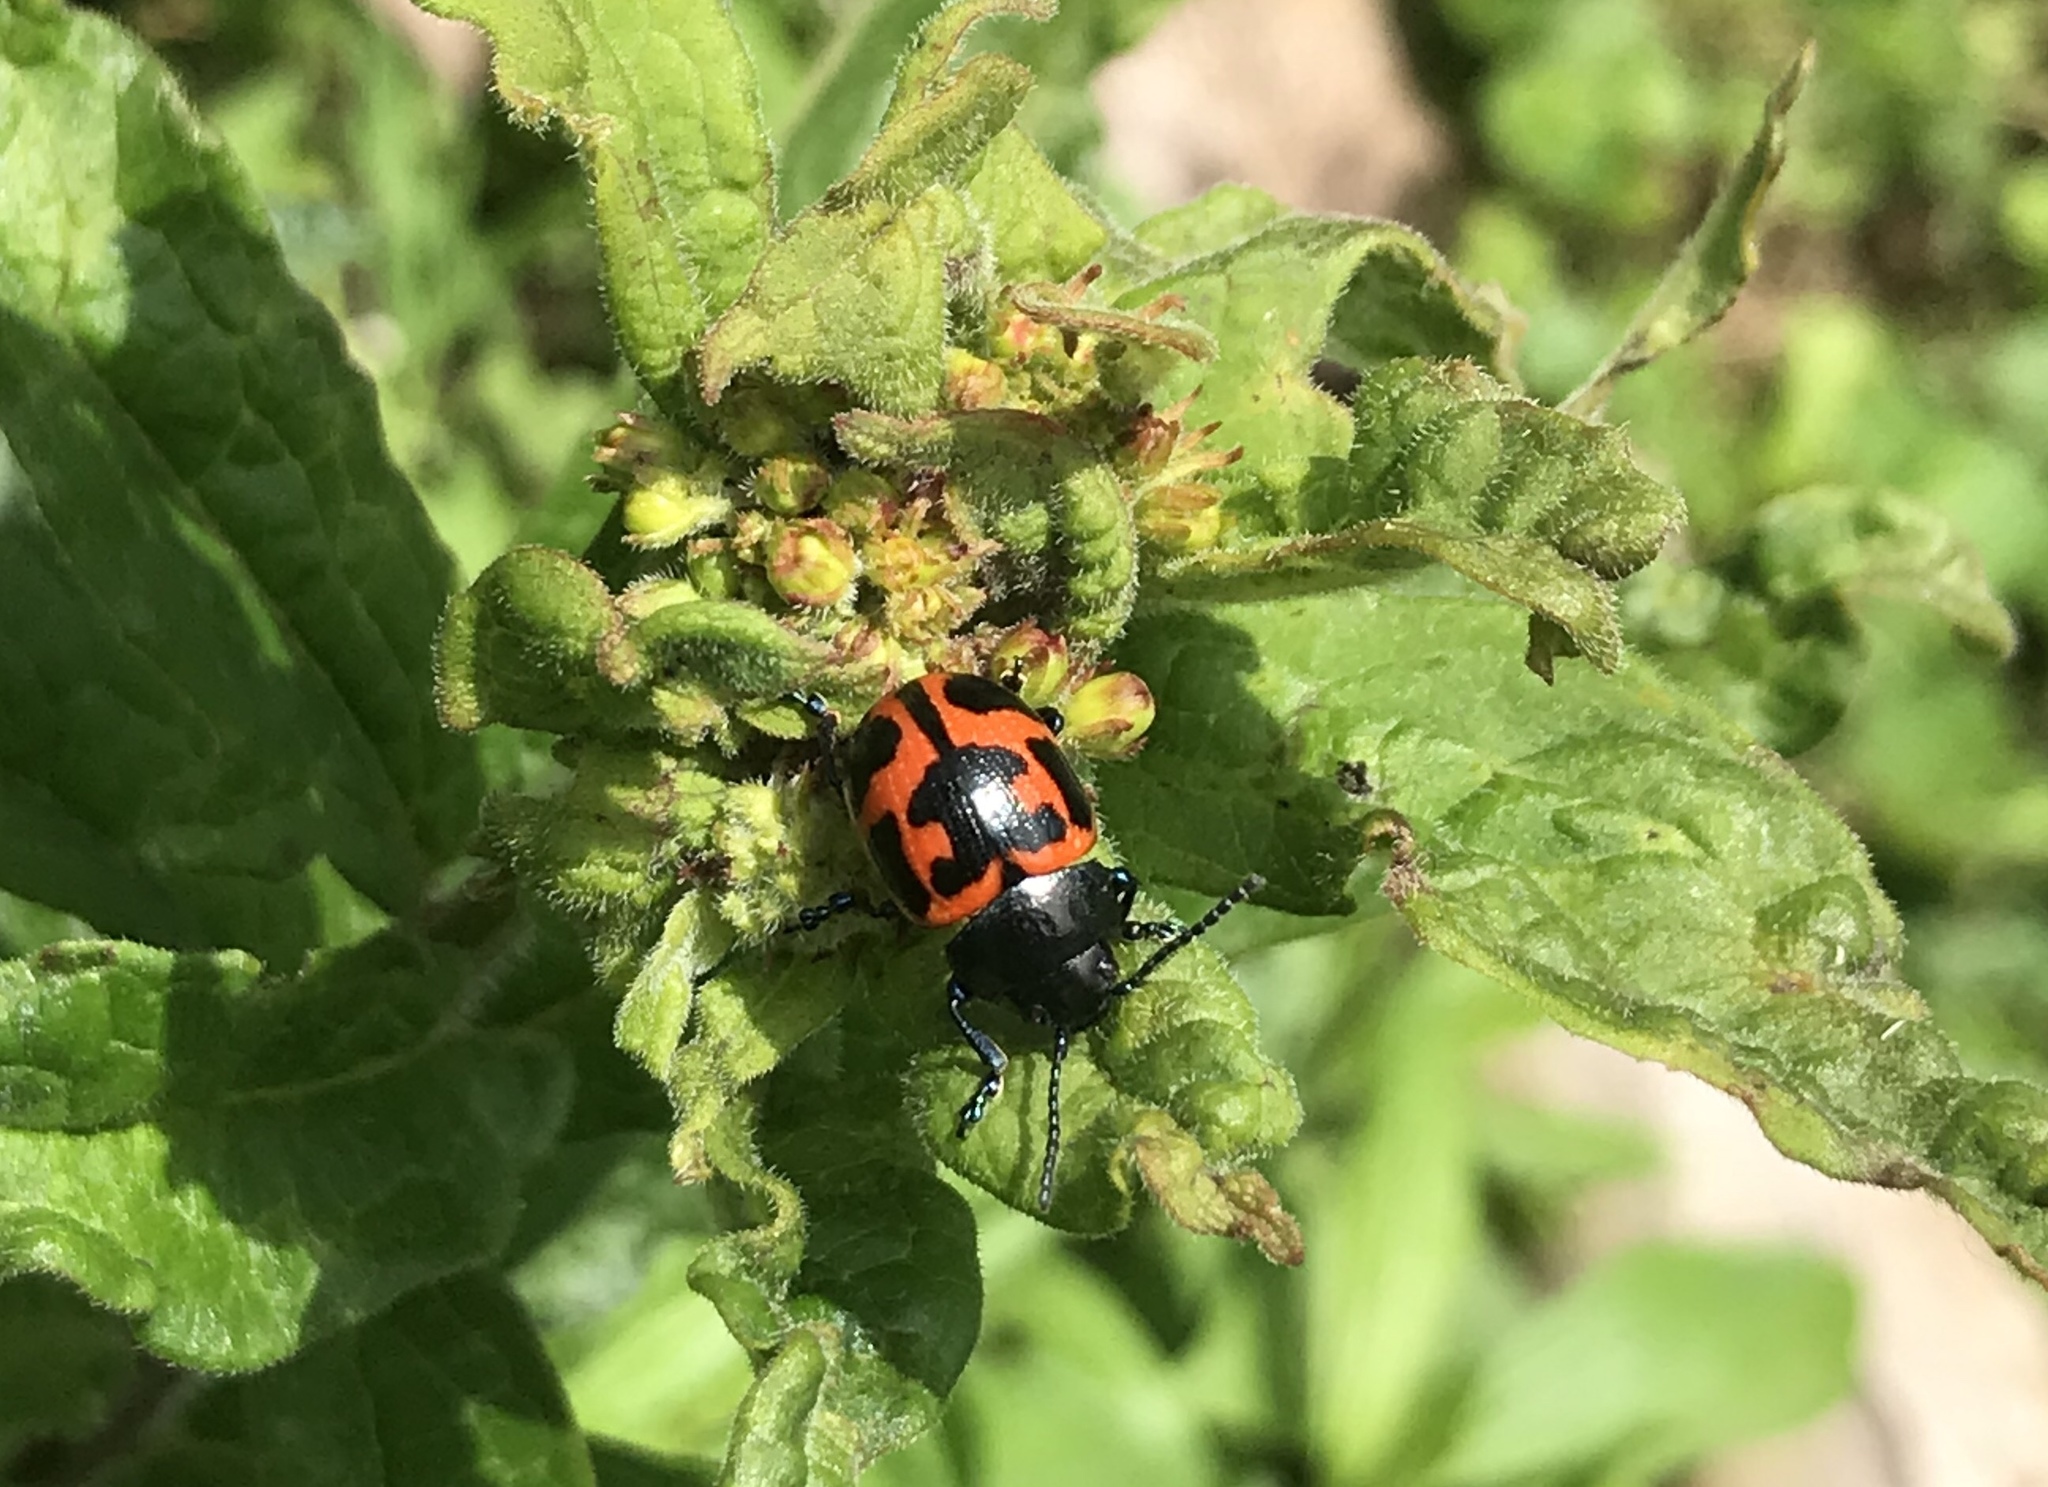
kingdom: Animalia
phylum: Arthropoda
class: Insecta
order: Coleoptera
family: Chrysomelidae
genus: Labidomera
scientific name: Labidomera clivicollis
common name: Swamp milkweed leaf beetle
